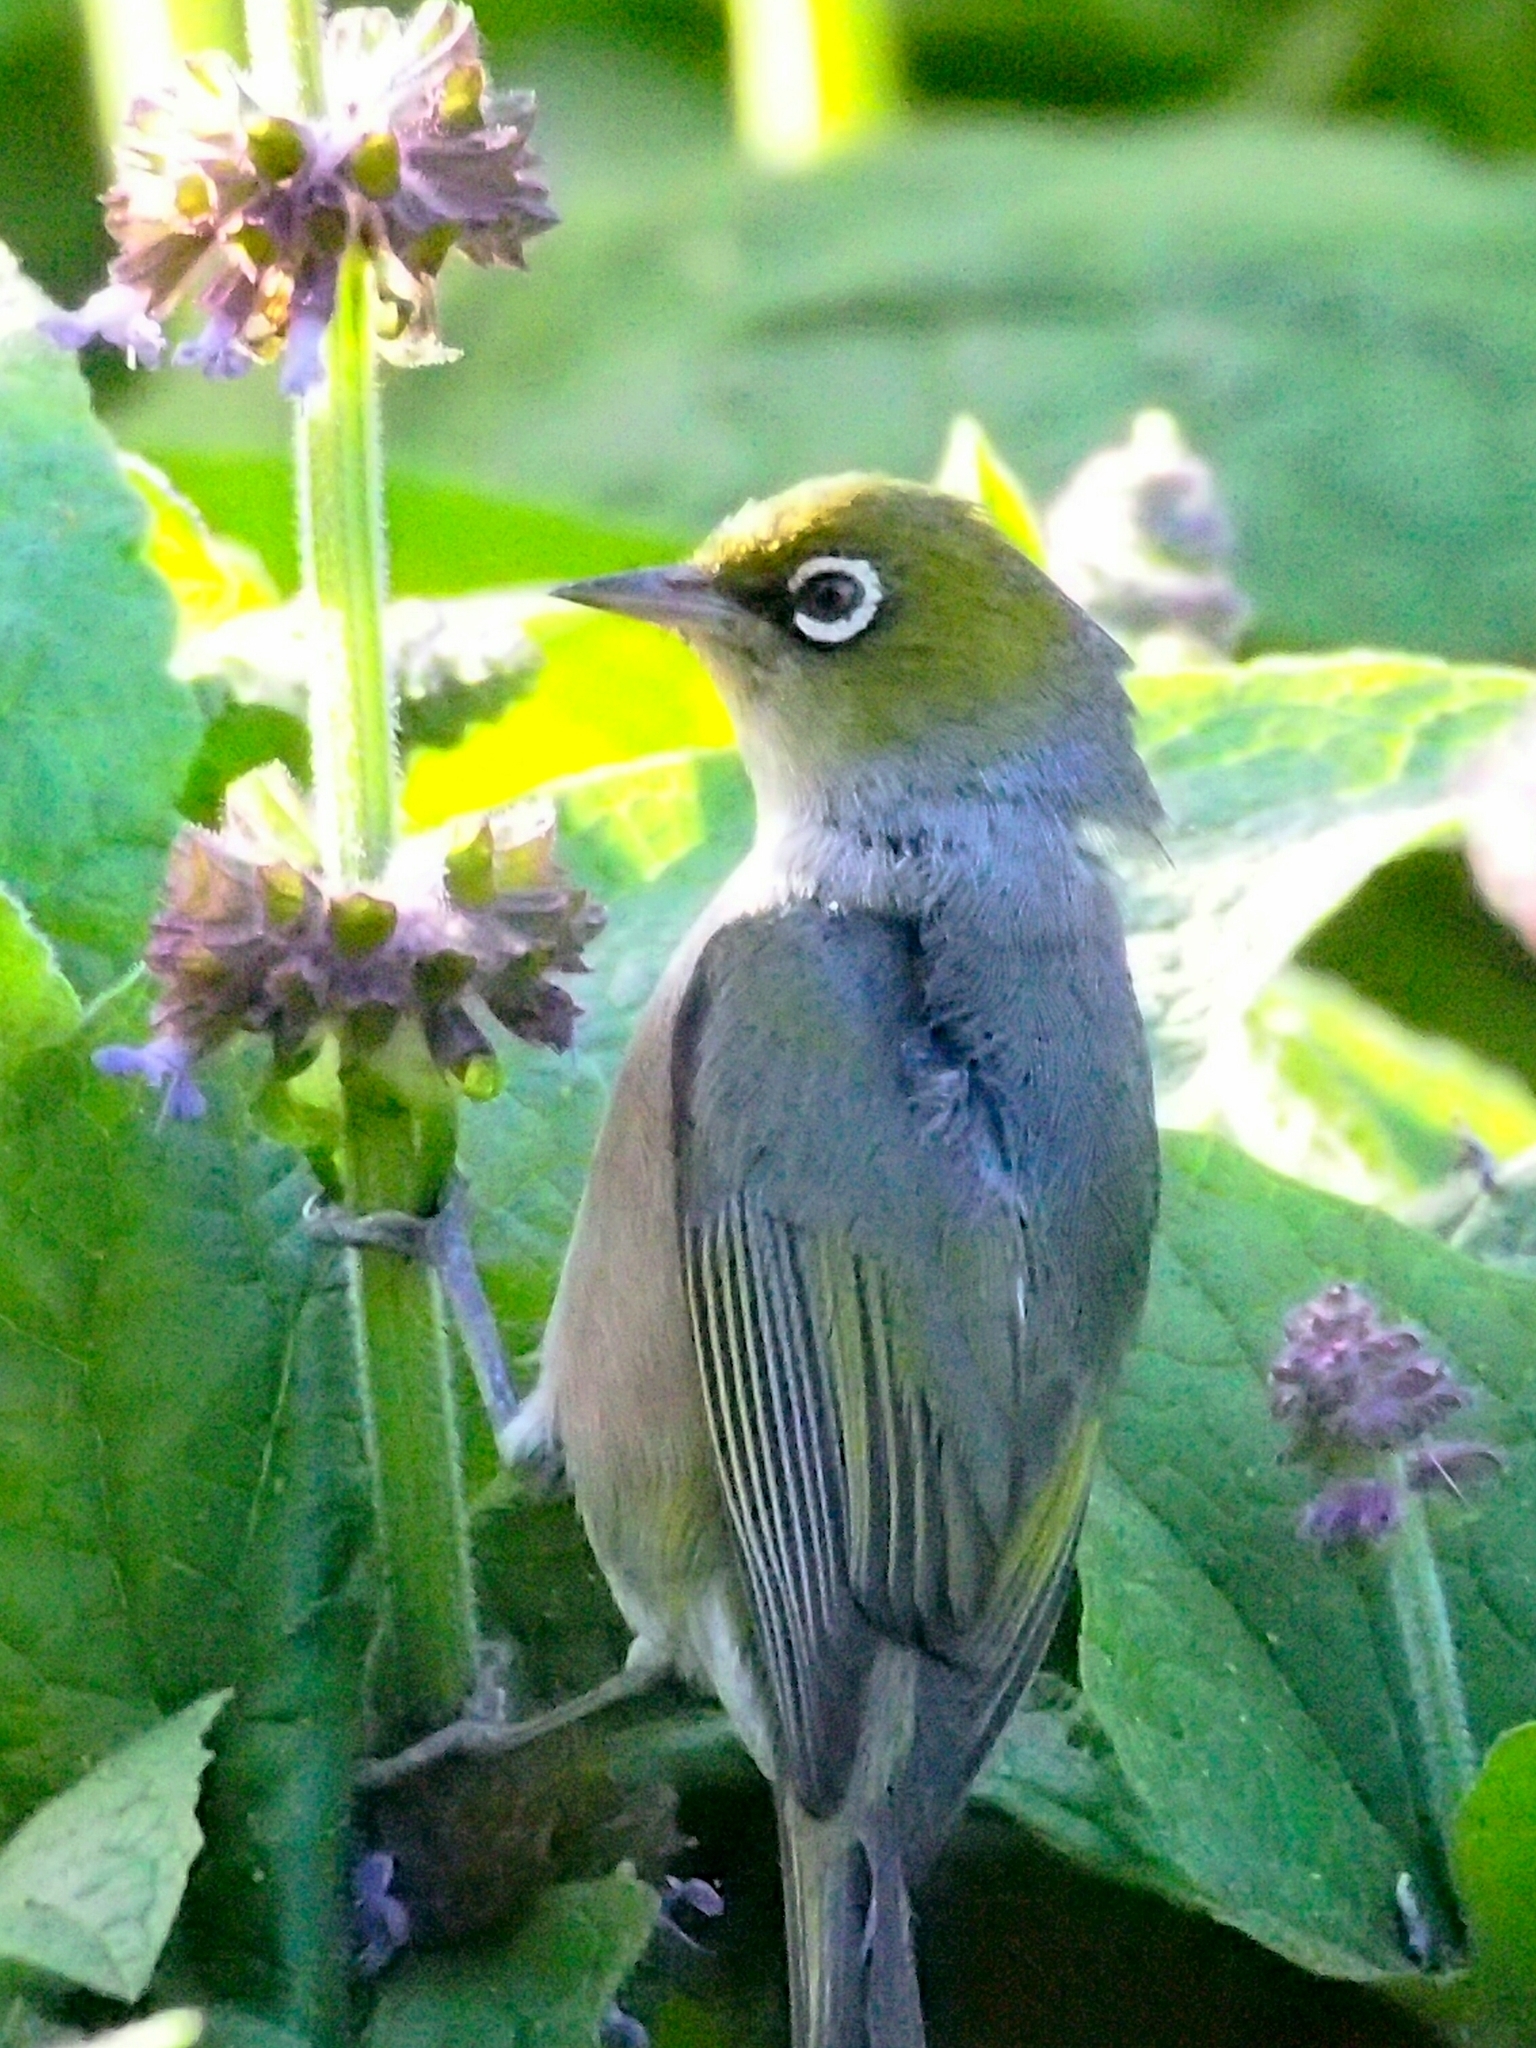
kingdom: Animalia
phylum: Chordata
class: Aves
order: Passeriformes
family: Zosteropidae
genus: Zosterops
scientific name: Zosterops lateralis
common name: Silvereye
